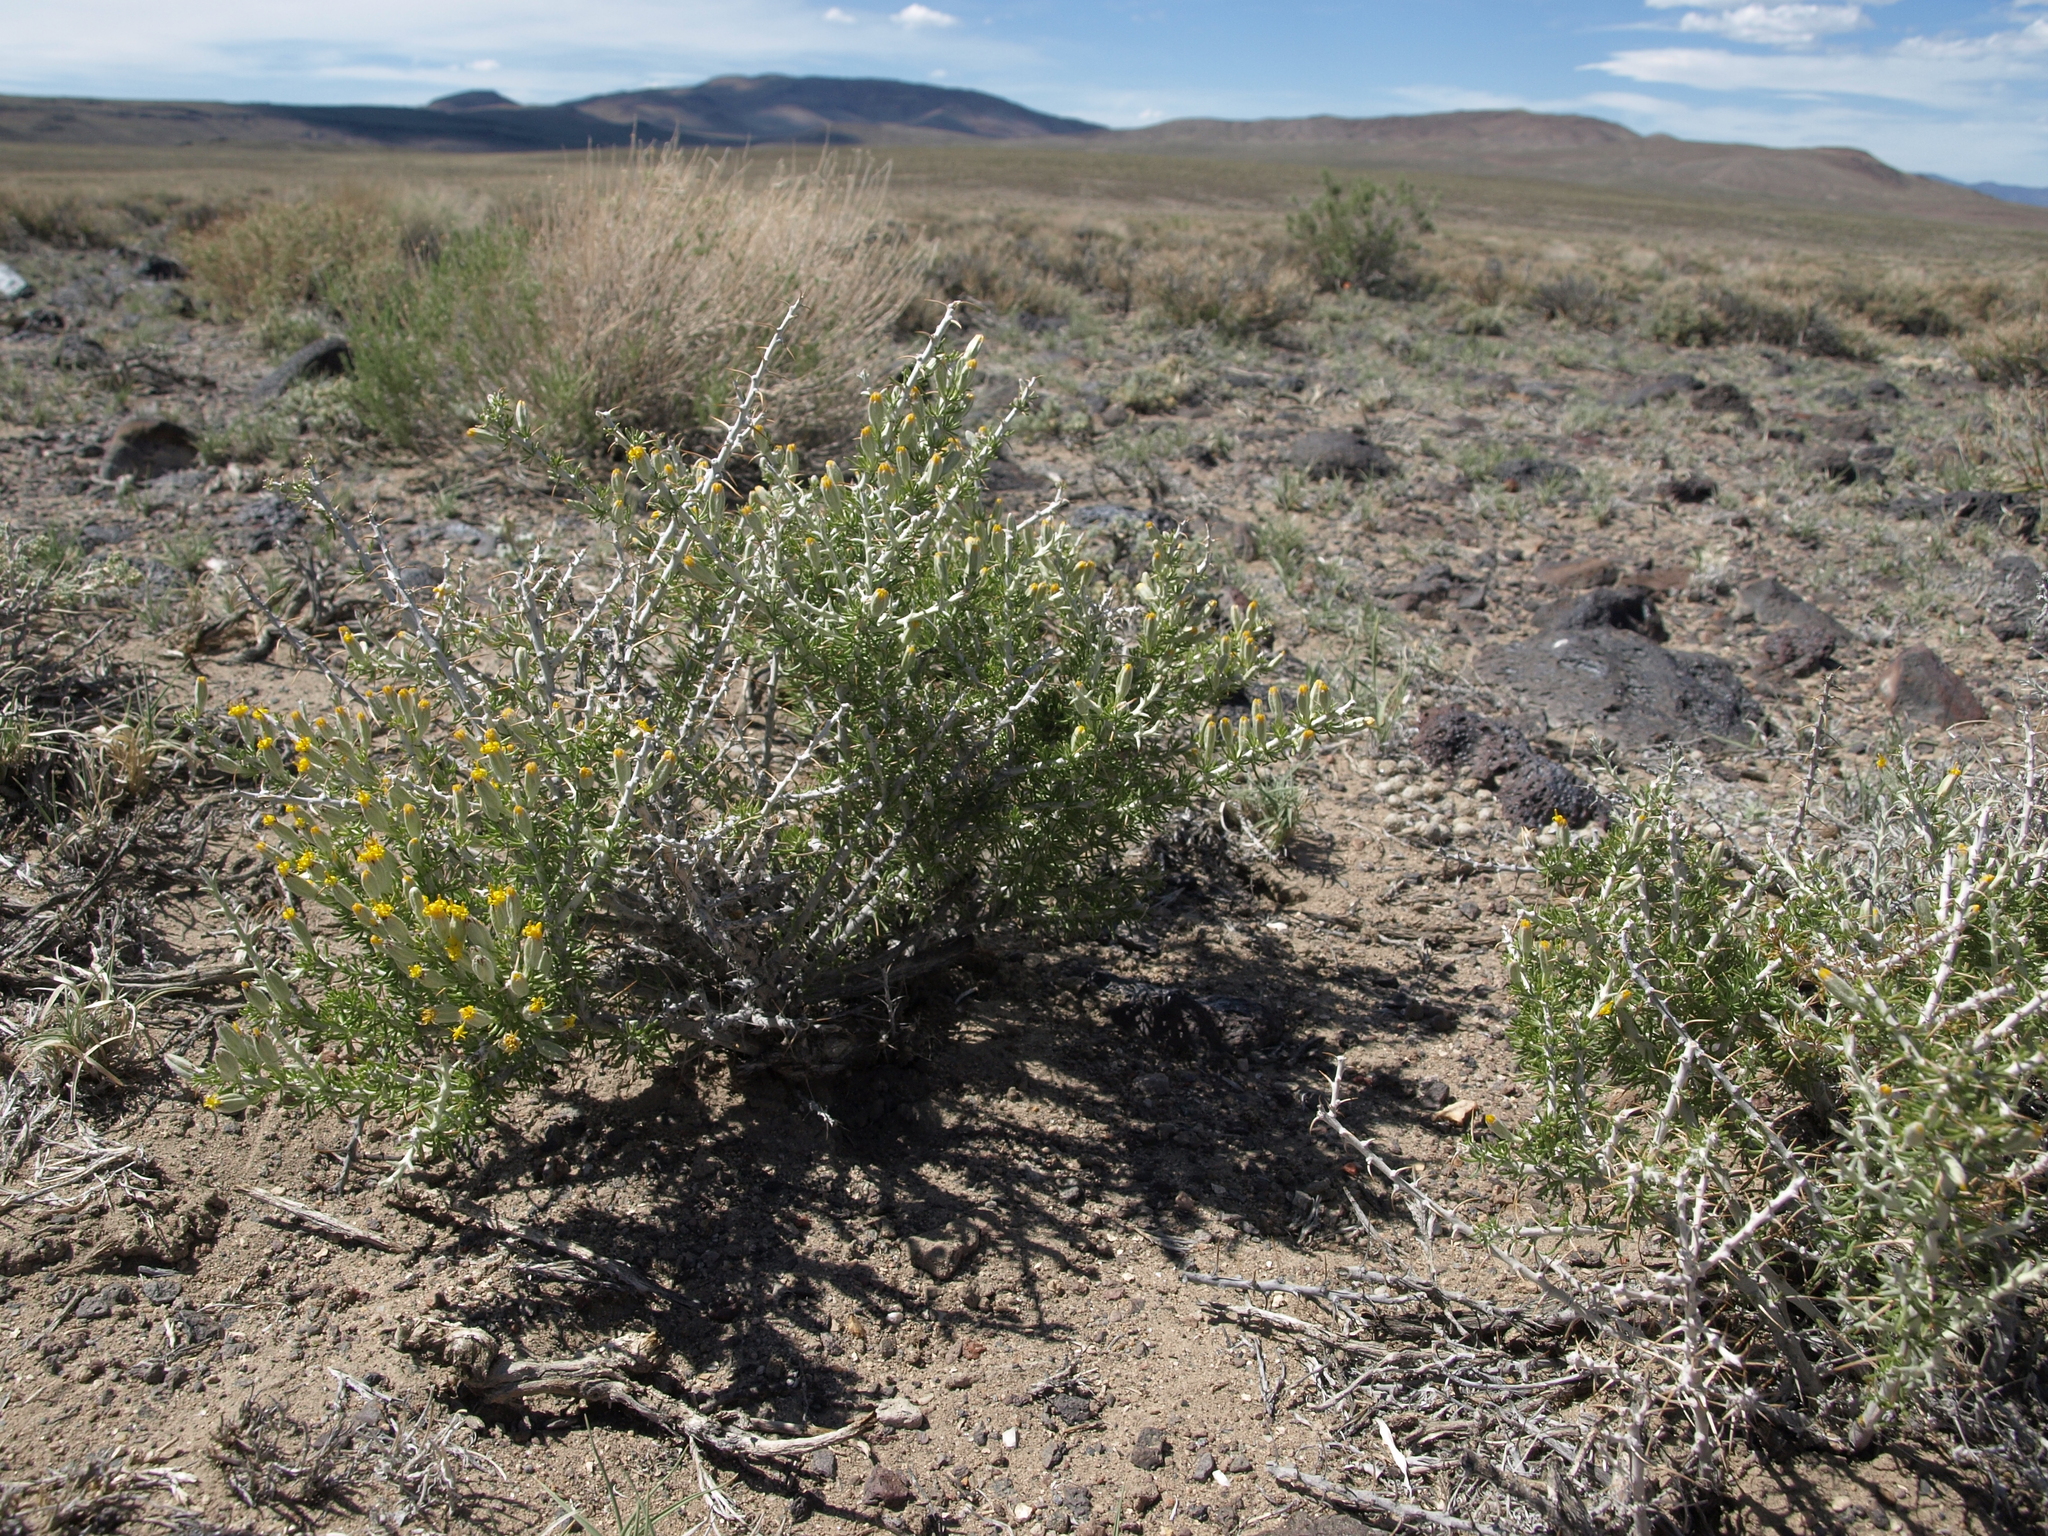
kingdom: Plantae
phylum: Tracheophyta
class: Magnoliopsida
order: Asterales
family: Asteraceae
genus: Tetradymia
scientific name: Tetradymia spinosa
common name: Thorny horsebrush
